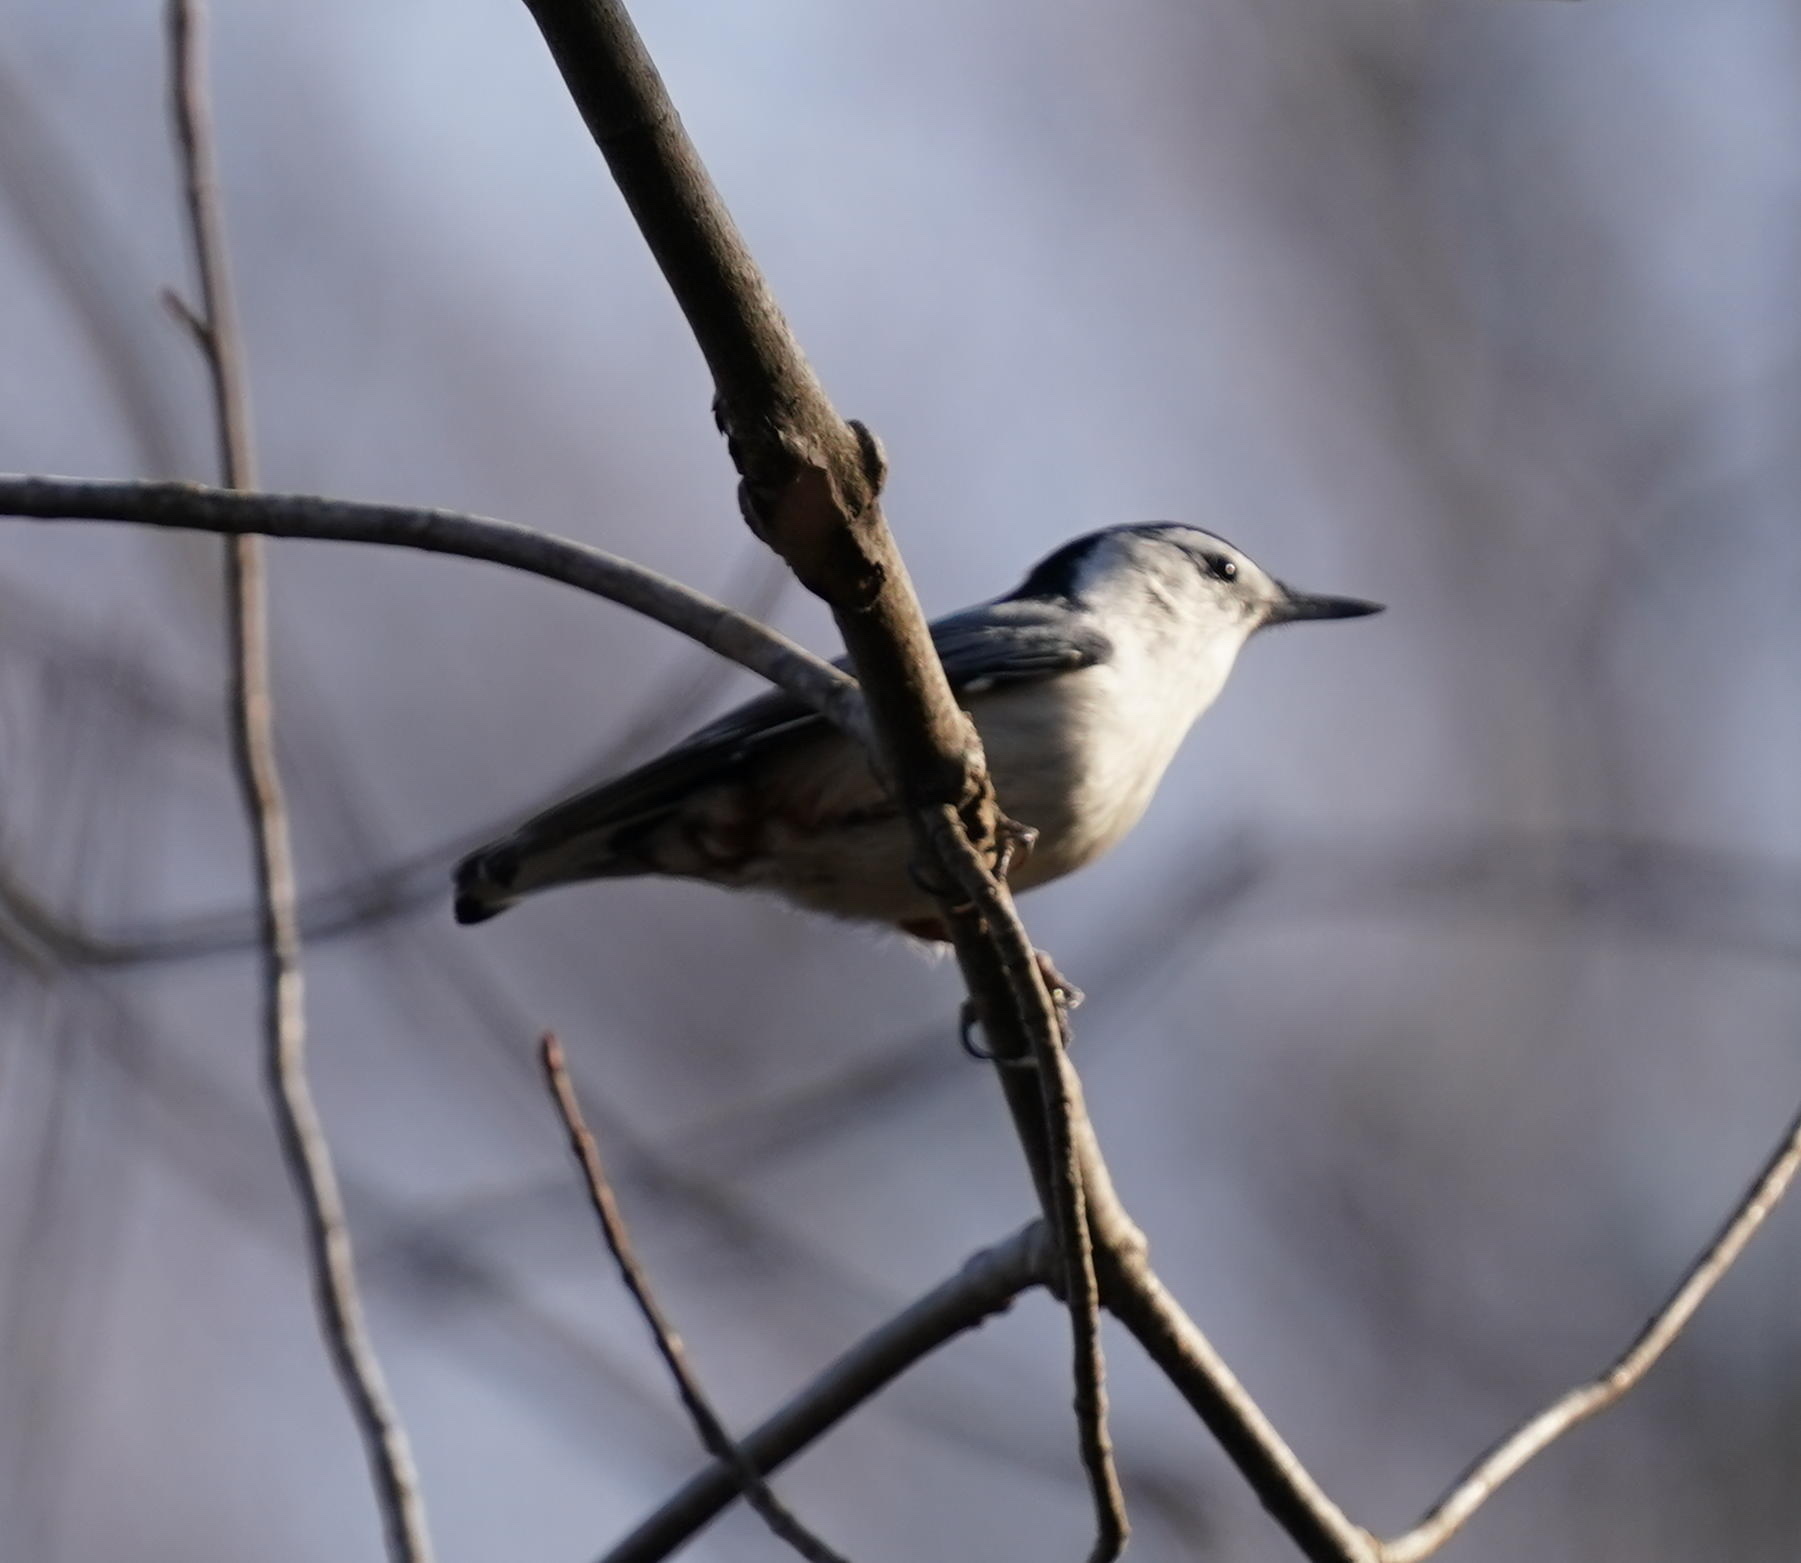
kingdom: Animalia
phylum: Chordata
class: Aves
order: Passeriformes
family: Sittidae
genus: Sitta
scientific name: Sitta carolinensis
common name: White-breasted nuthatch
